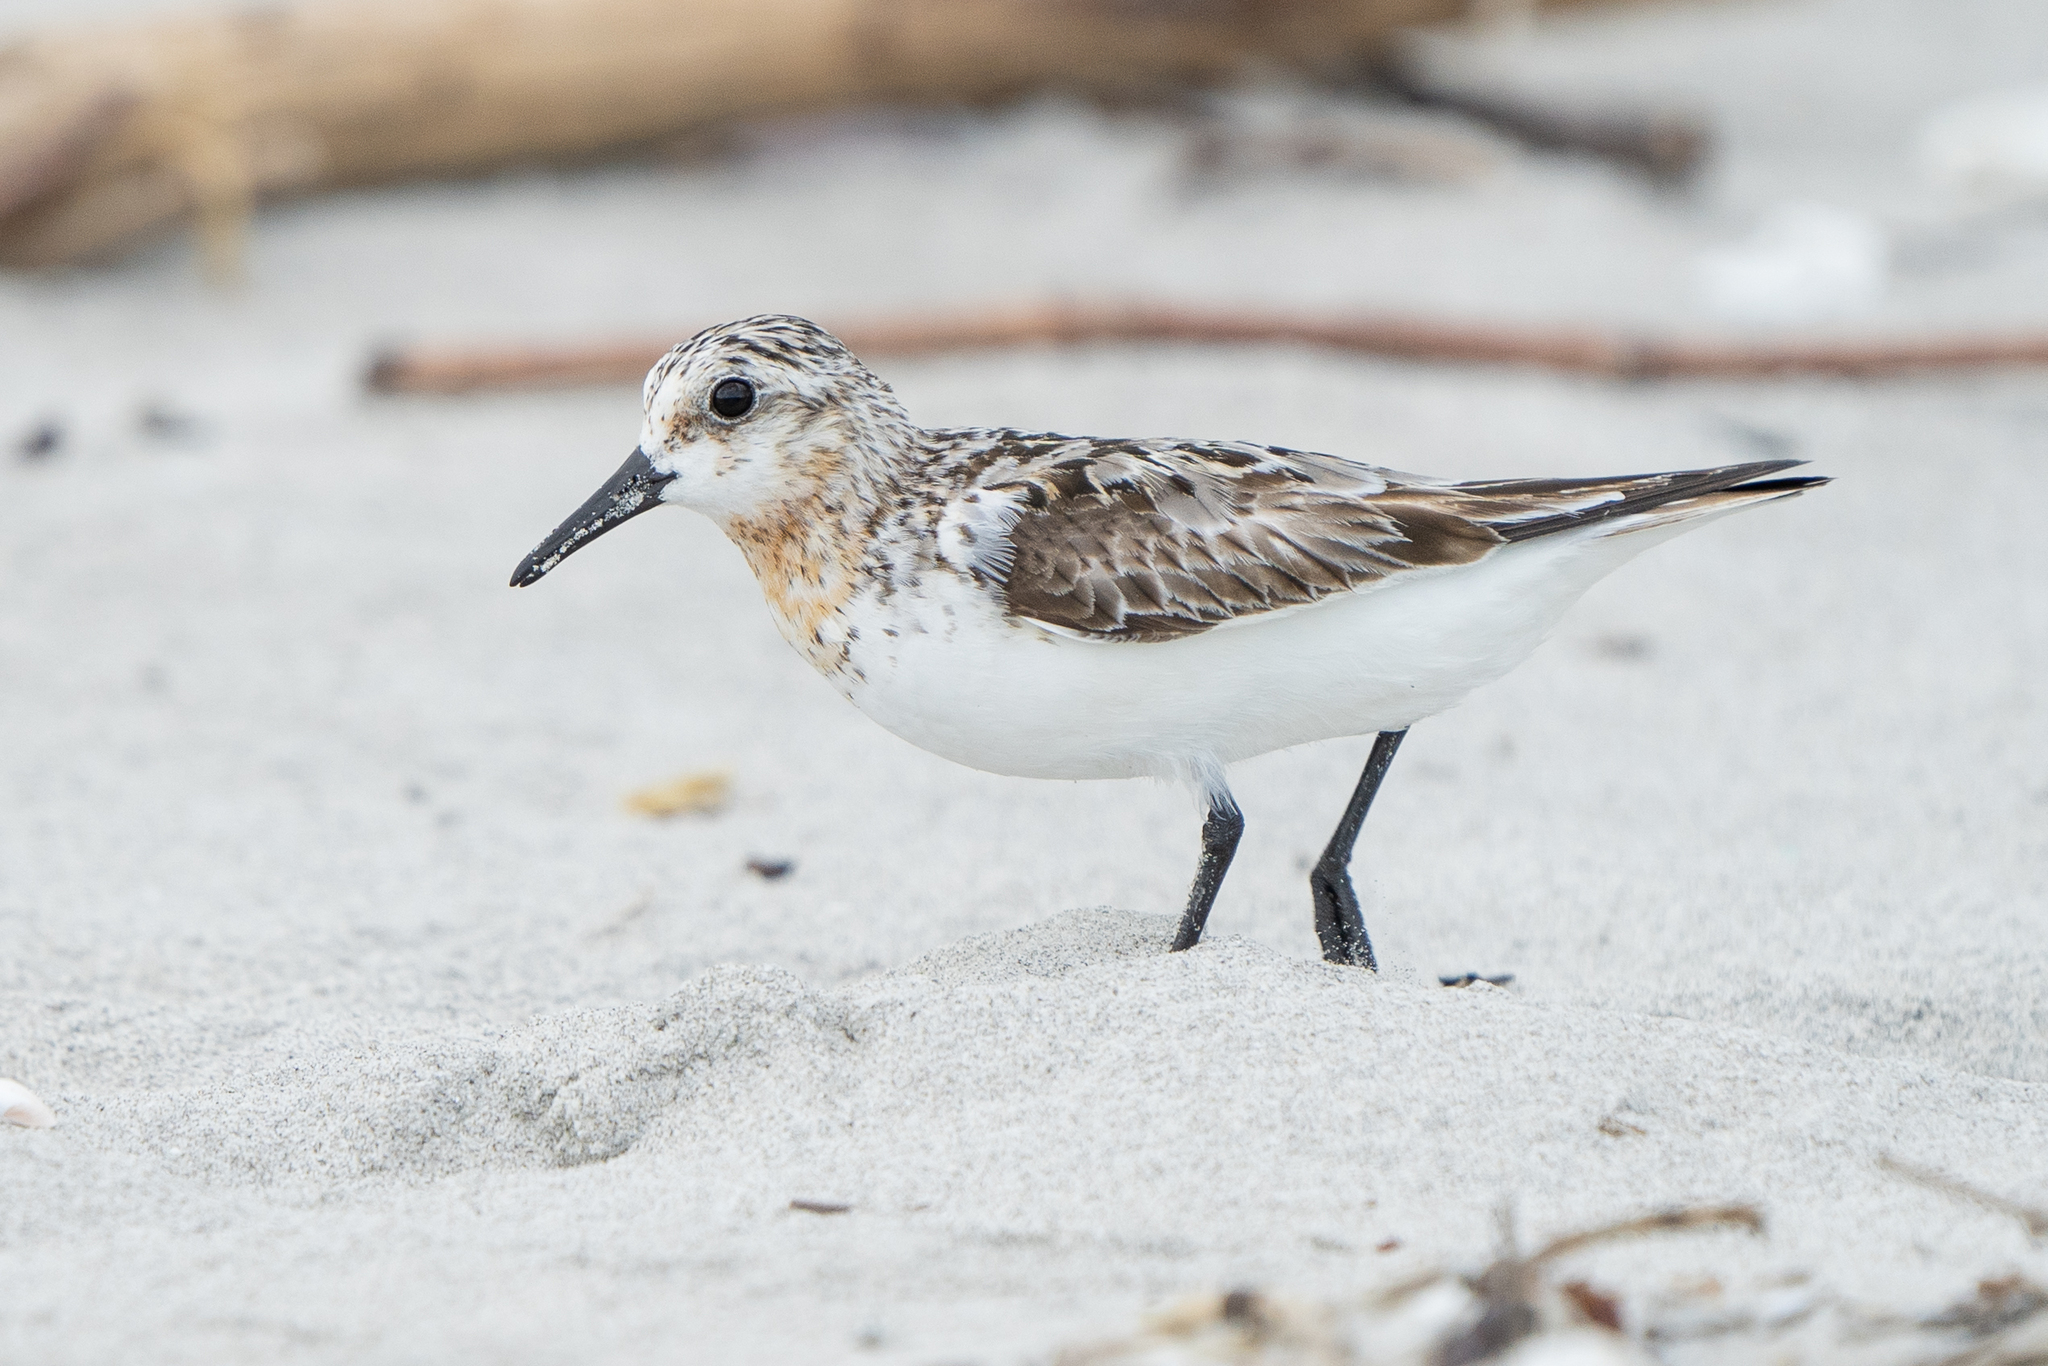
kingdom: Animalia
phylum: Chordata
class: Aves
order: Charadriiformes
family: Scolopacidae
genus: Calidris
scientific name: Calidris alba
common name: Sanderling
